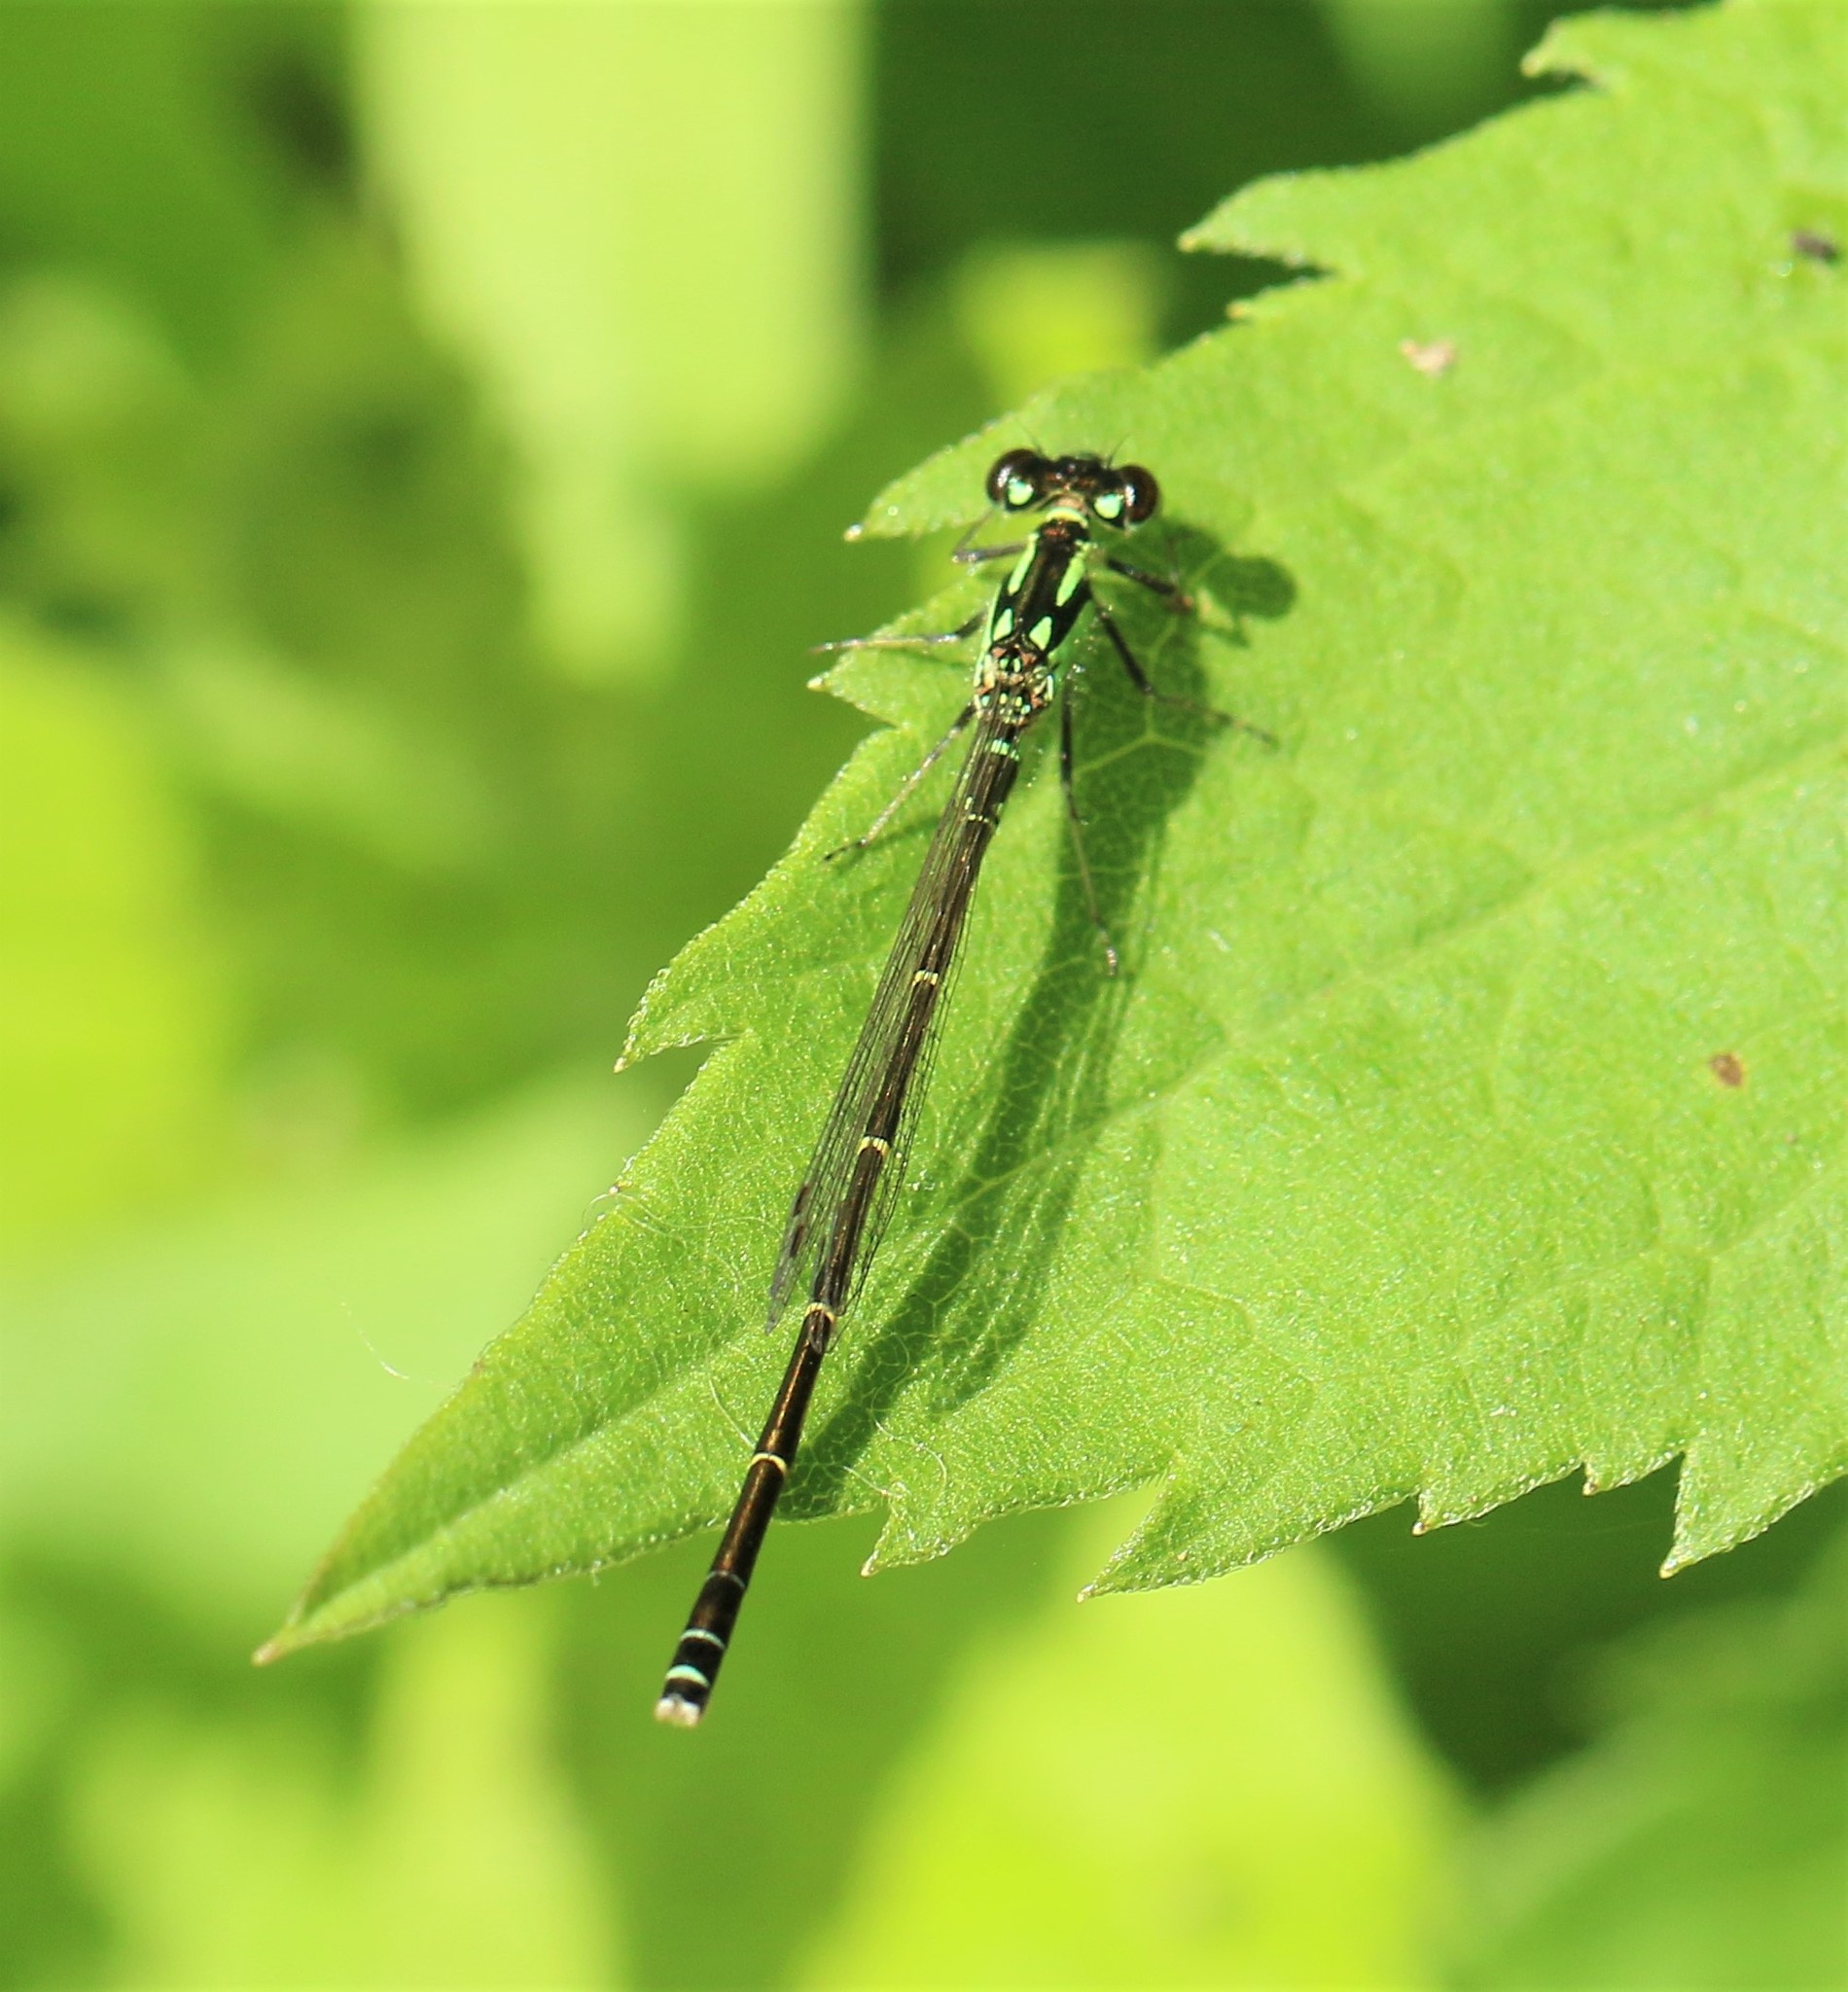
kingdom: Animalia
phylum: Arthropoda
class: Insecta
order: Odonata
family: Coenagrionidae
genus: Ischnura
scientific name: Ischnura posita
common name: Fragile forktail
